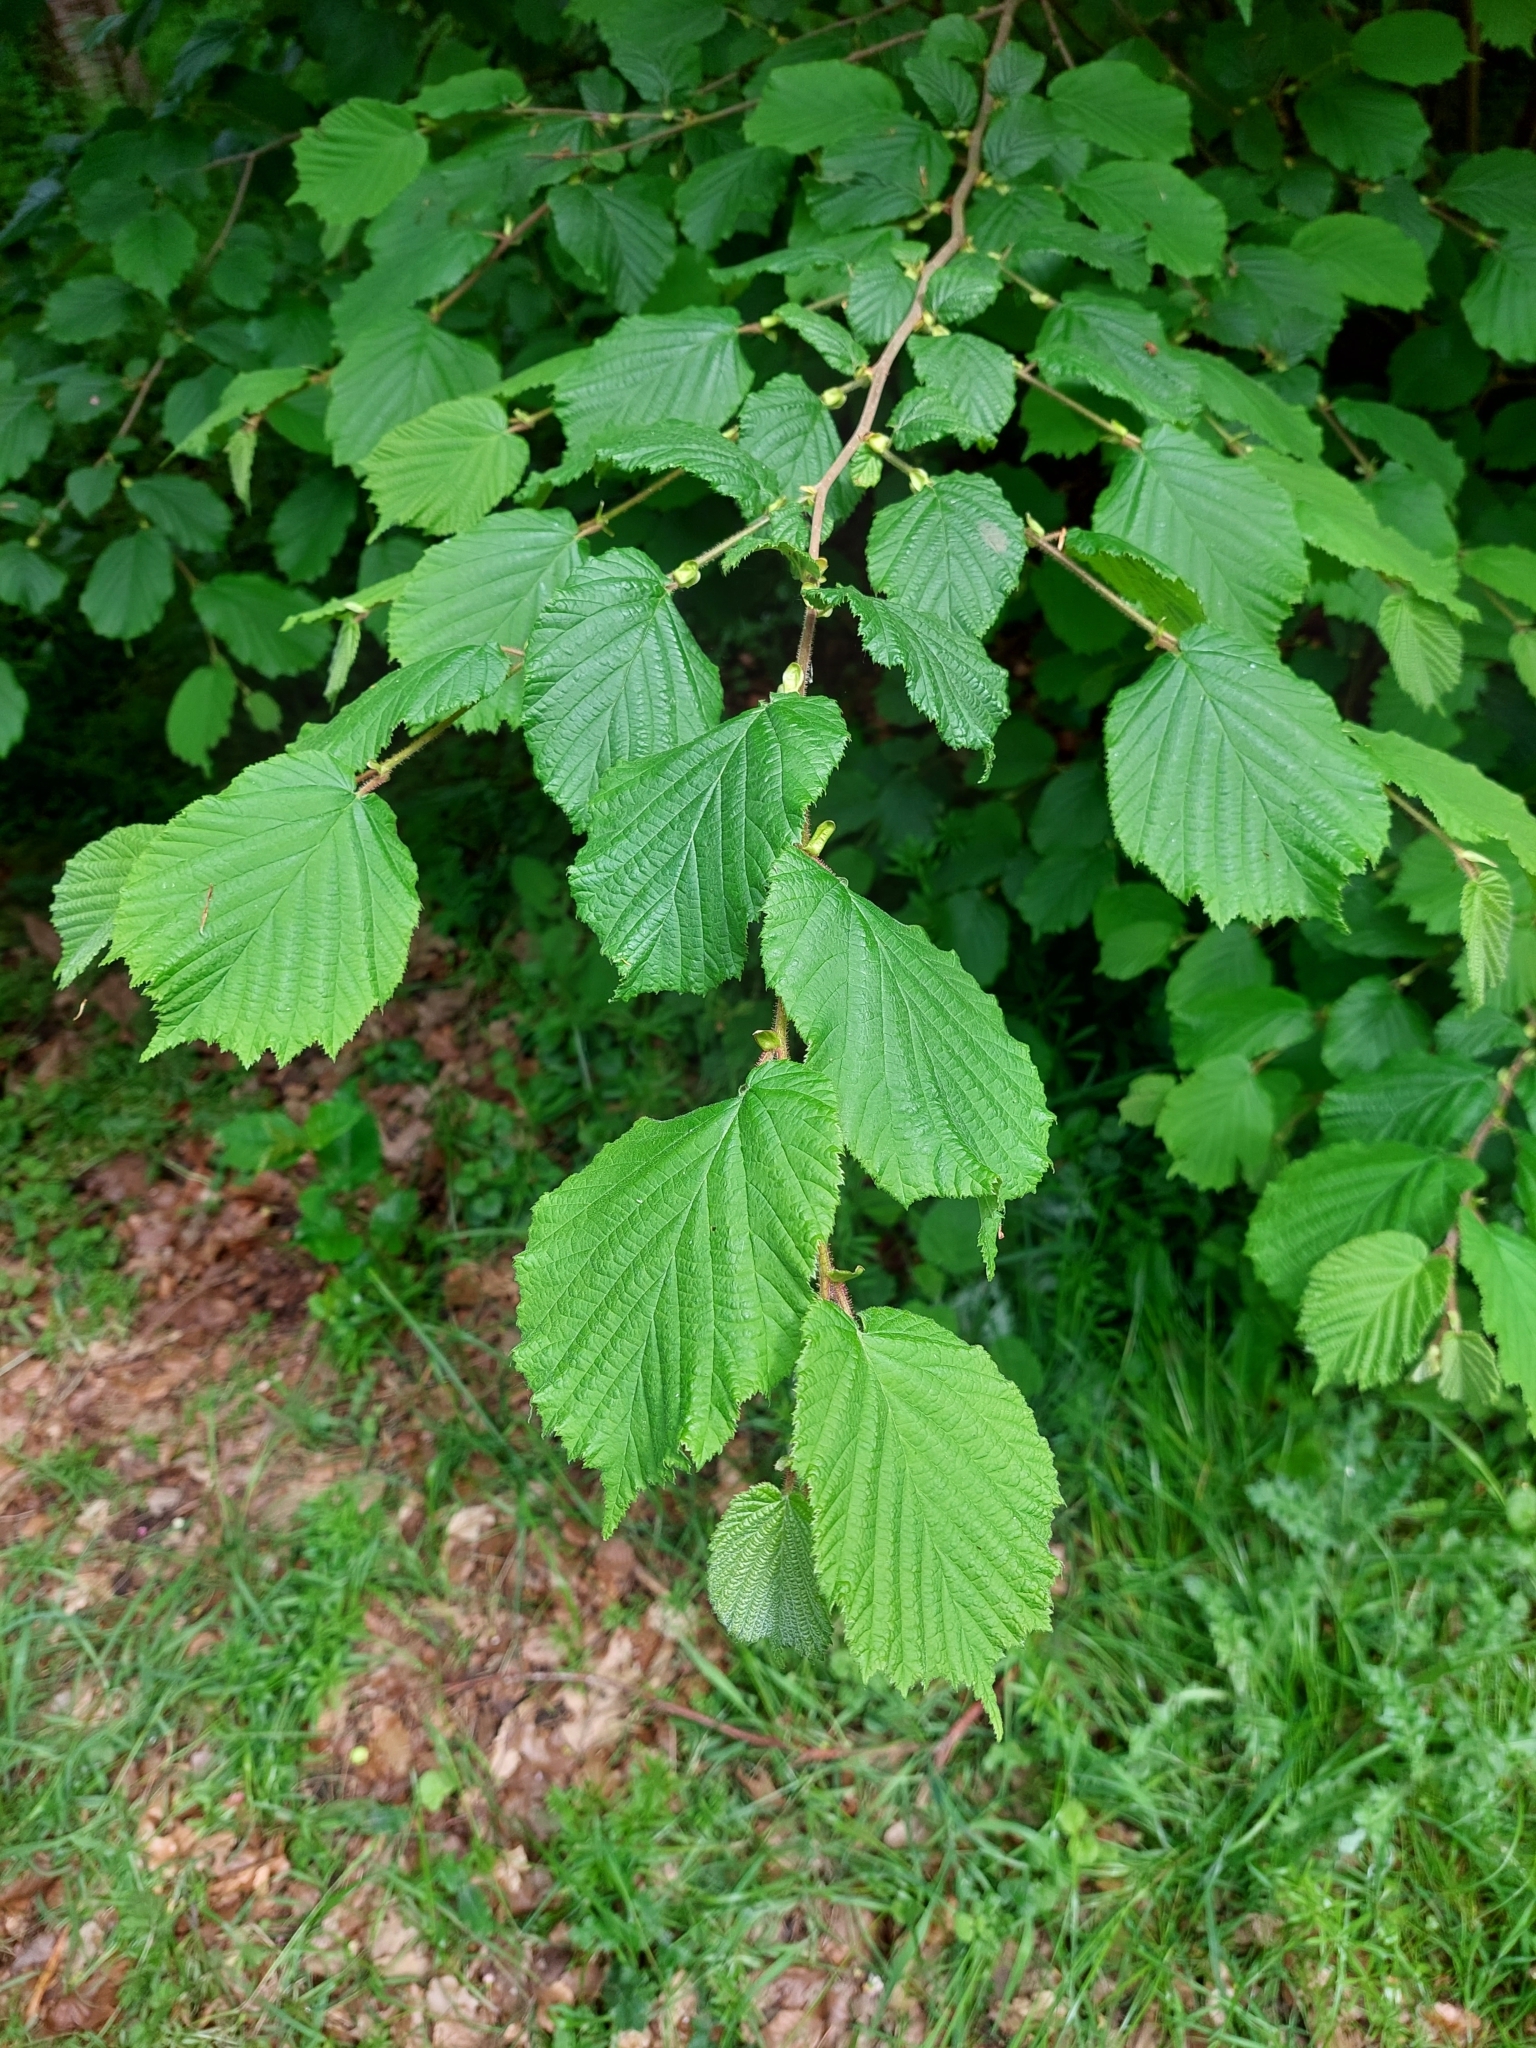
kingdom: Plantae
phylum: Tracheophyta
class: Magnoliopsida
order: Fagales
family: Betulaceae
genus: Corylus
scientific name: Corylus avellana
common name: European hazel
